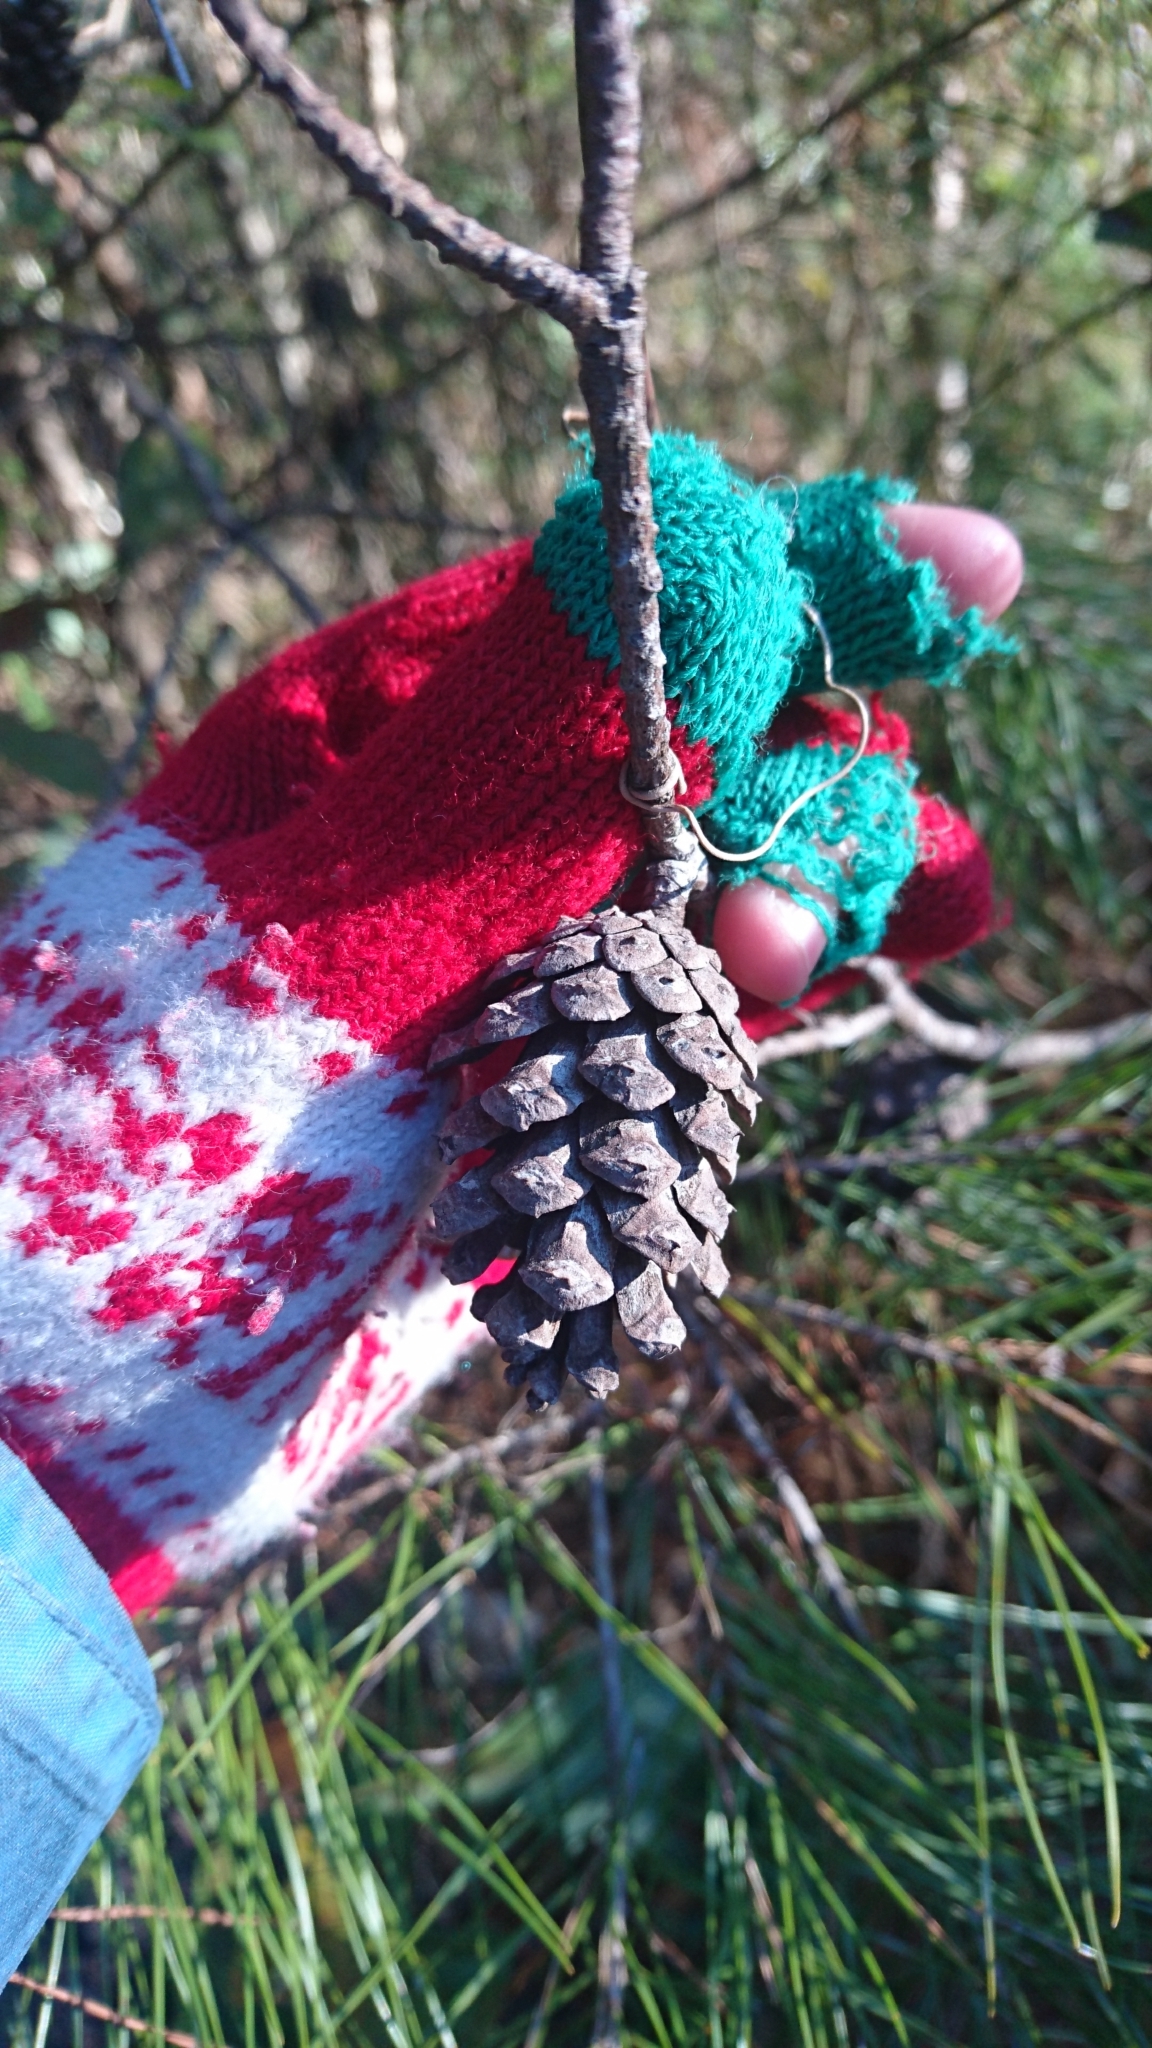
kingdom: Plantae
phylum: Tracheophyta
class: Pinopsida
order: Pinales
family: Pinaceae
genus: Pinus
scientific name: Pinus glabra
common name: Spruce pine
